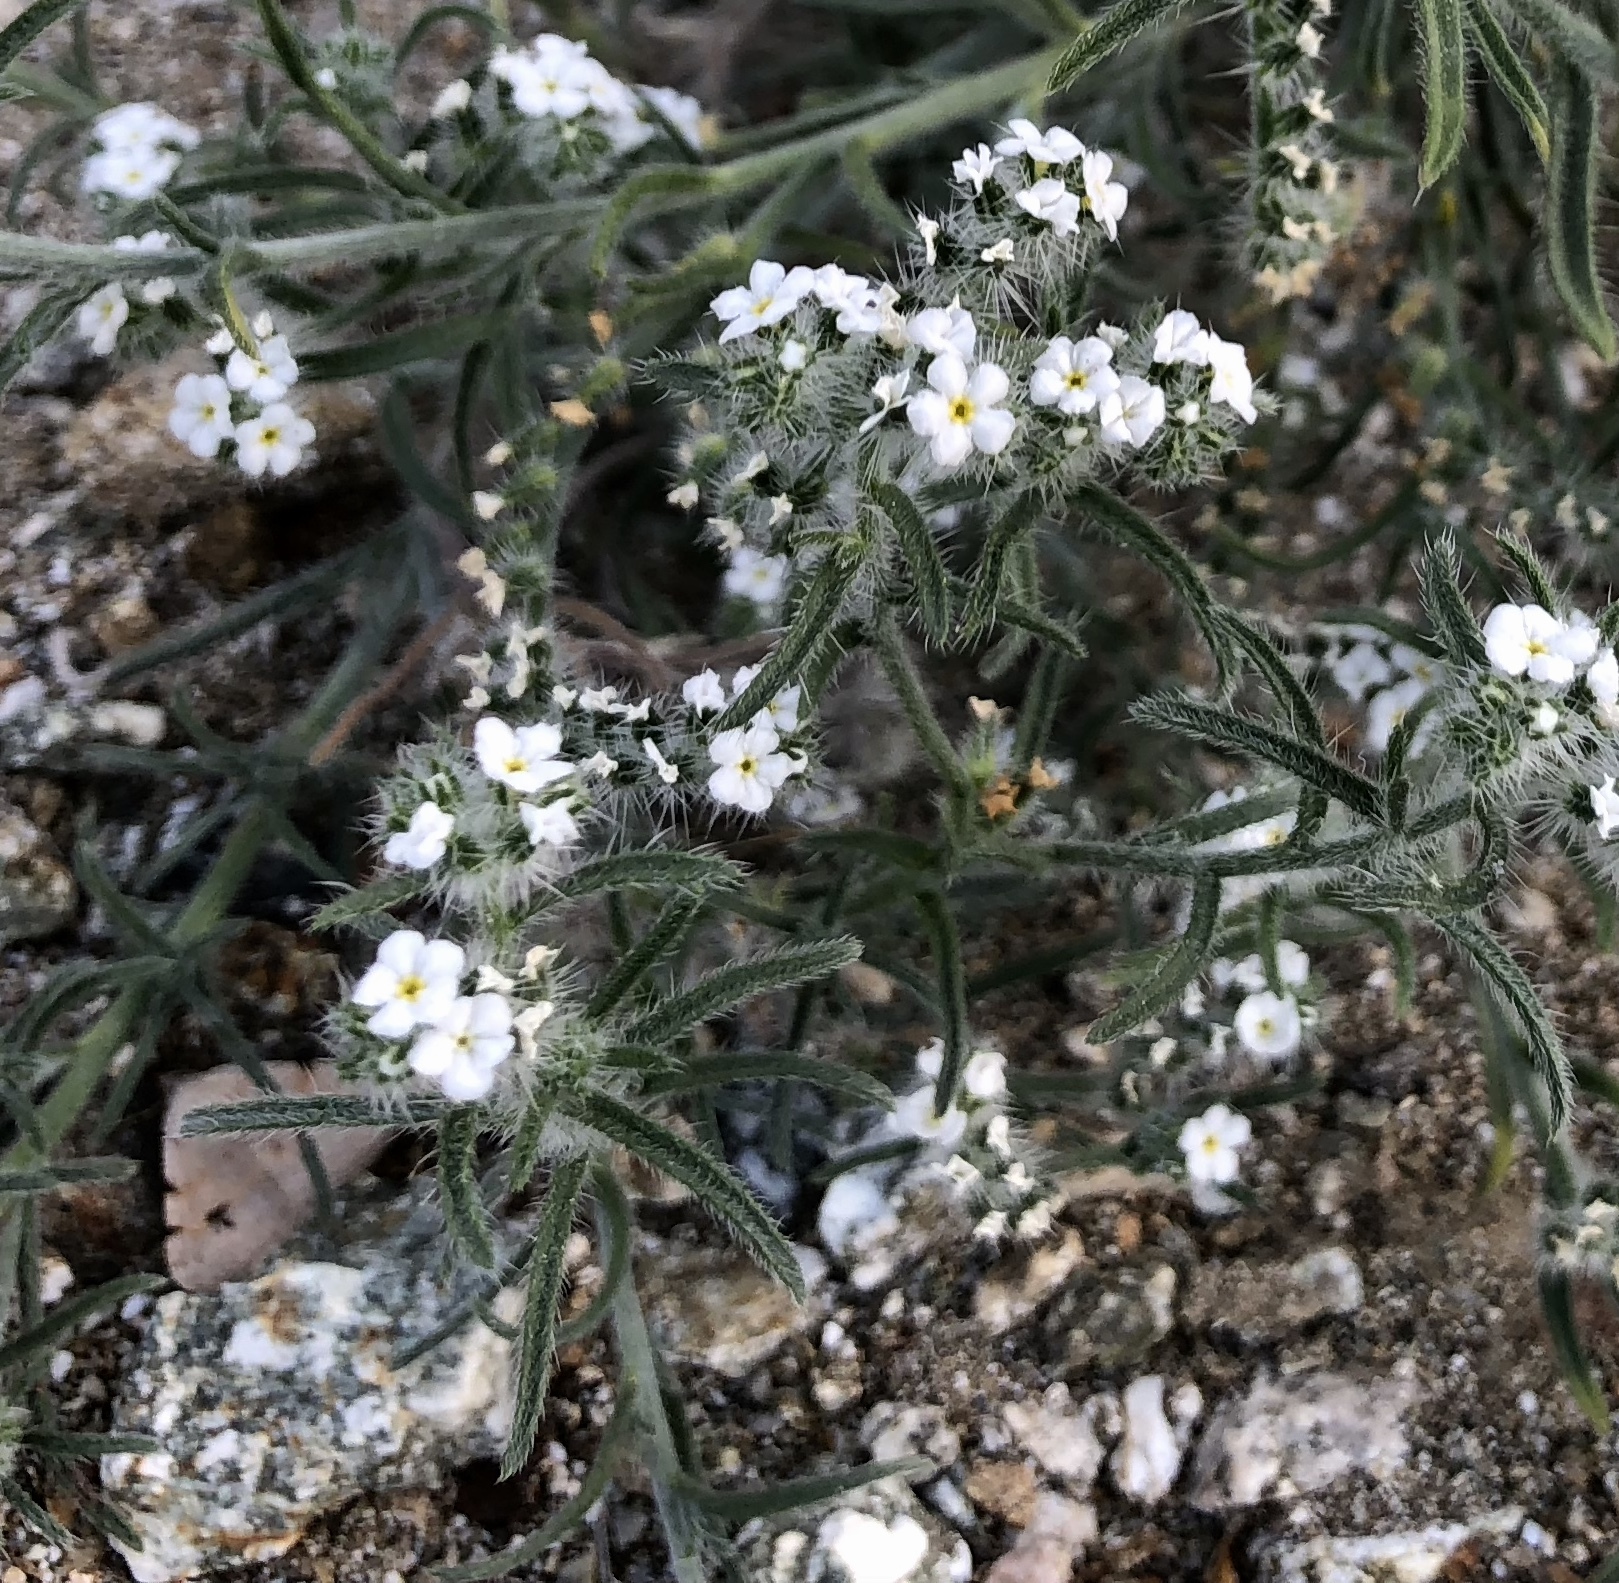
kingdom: Plantae
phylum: Tracheophyta
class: Magnoliopsida
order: Boraginales
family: Boraginaceae
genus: Johnstonella
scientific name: Johnstonella angustifolia
